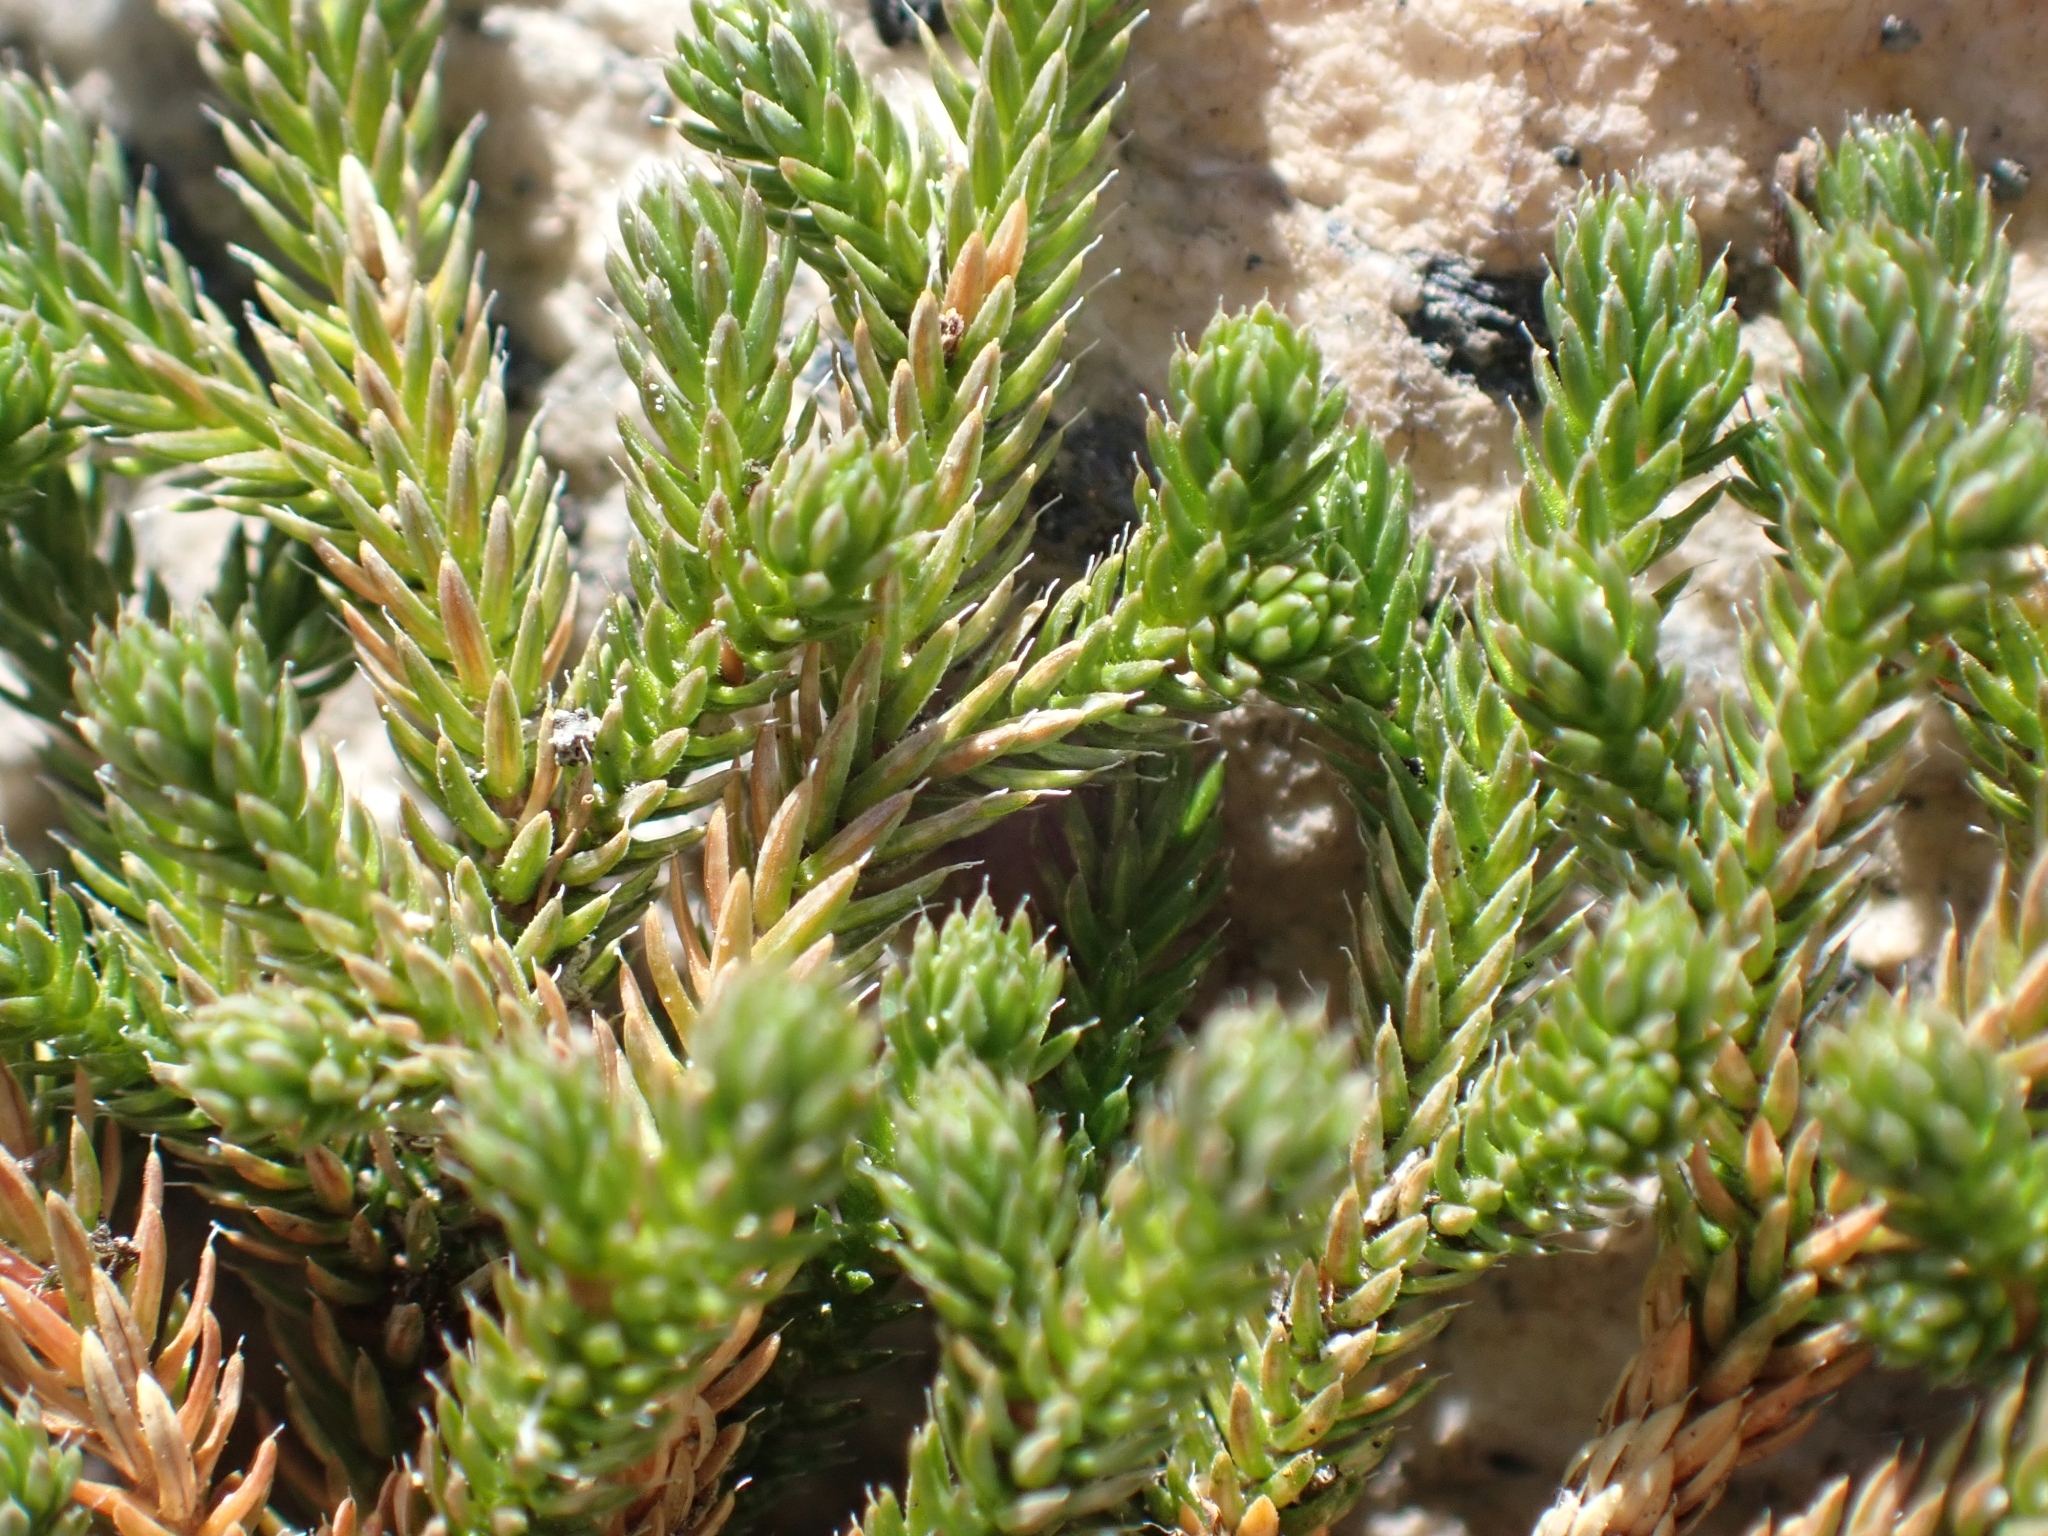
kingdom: Plantae
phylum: Tracheophyta
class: Lycopodiopsida
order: Selaginellales
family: Selaginellaceae
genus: Selaginella
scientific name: Selaginella wallacei
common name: Wallace's selaginella
